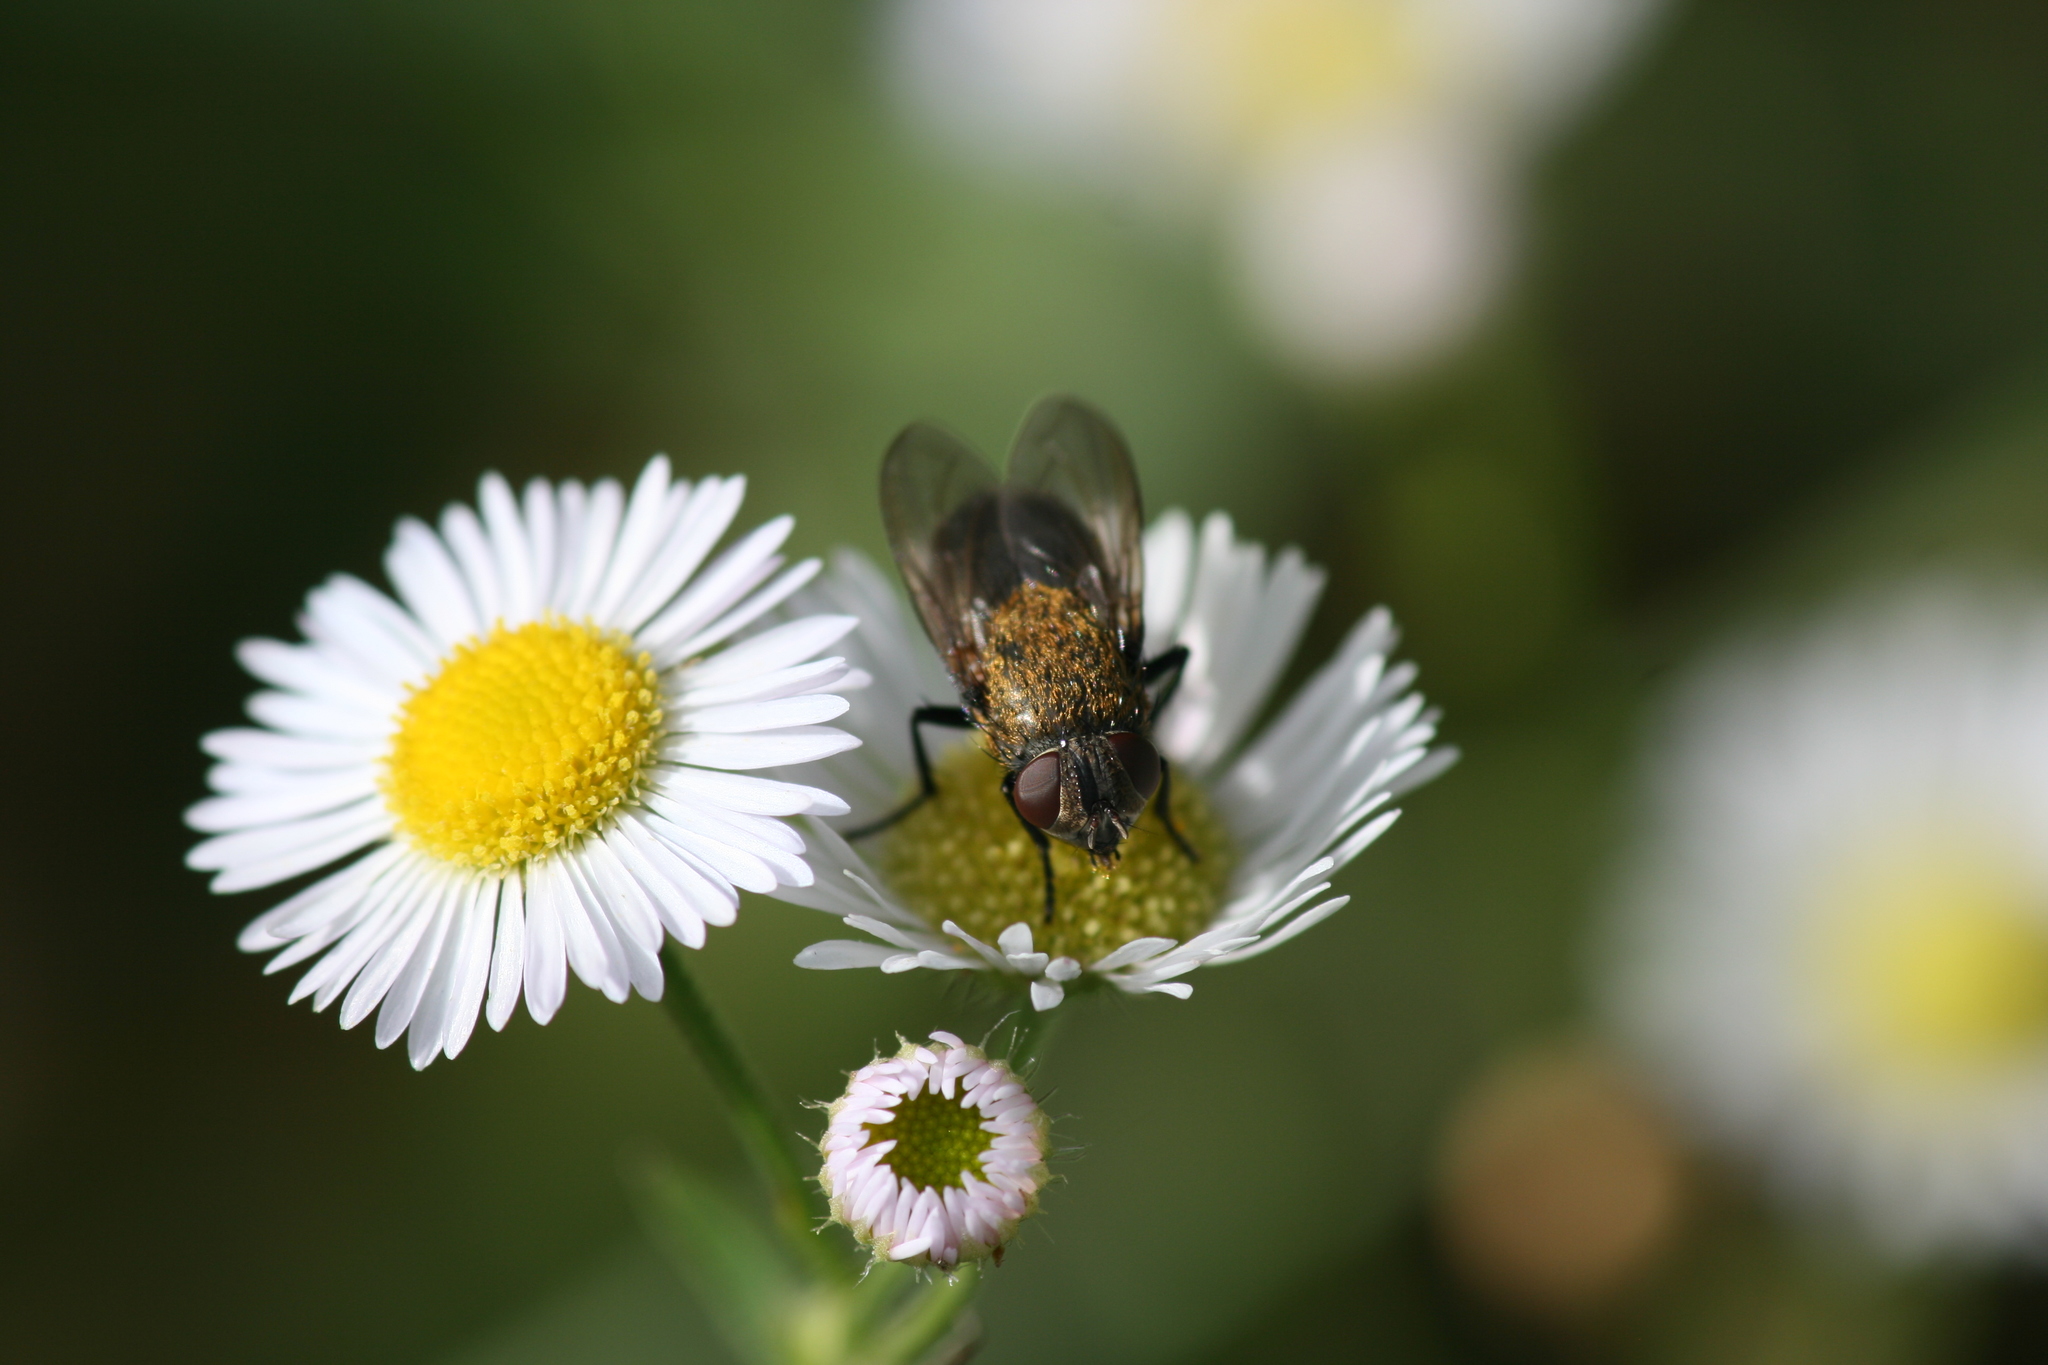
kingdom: Animalia
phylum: Arthropoda
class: Insecta
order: Diptera
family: Polleniidae
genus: Pollenia
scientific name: Pollenia amentaria
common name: Black-bellied clusterfly
